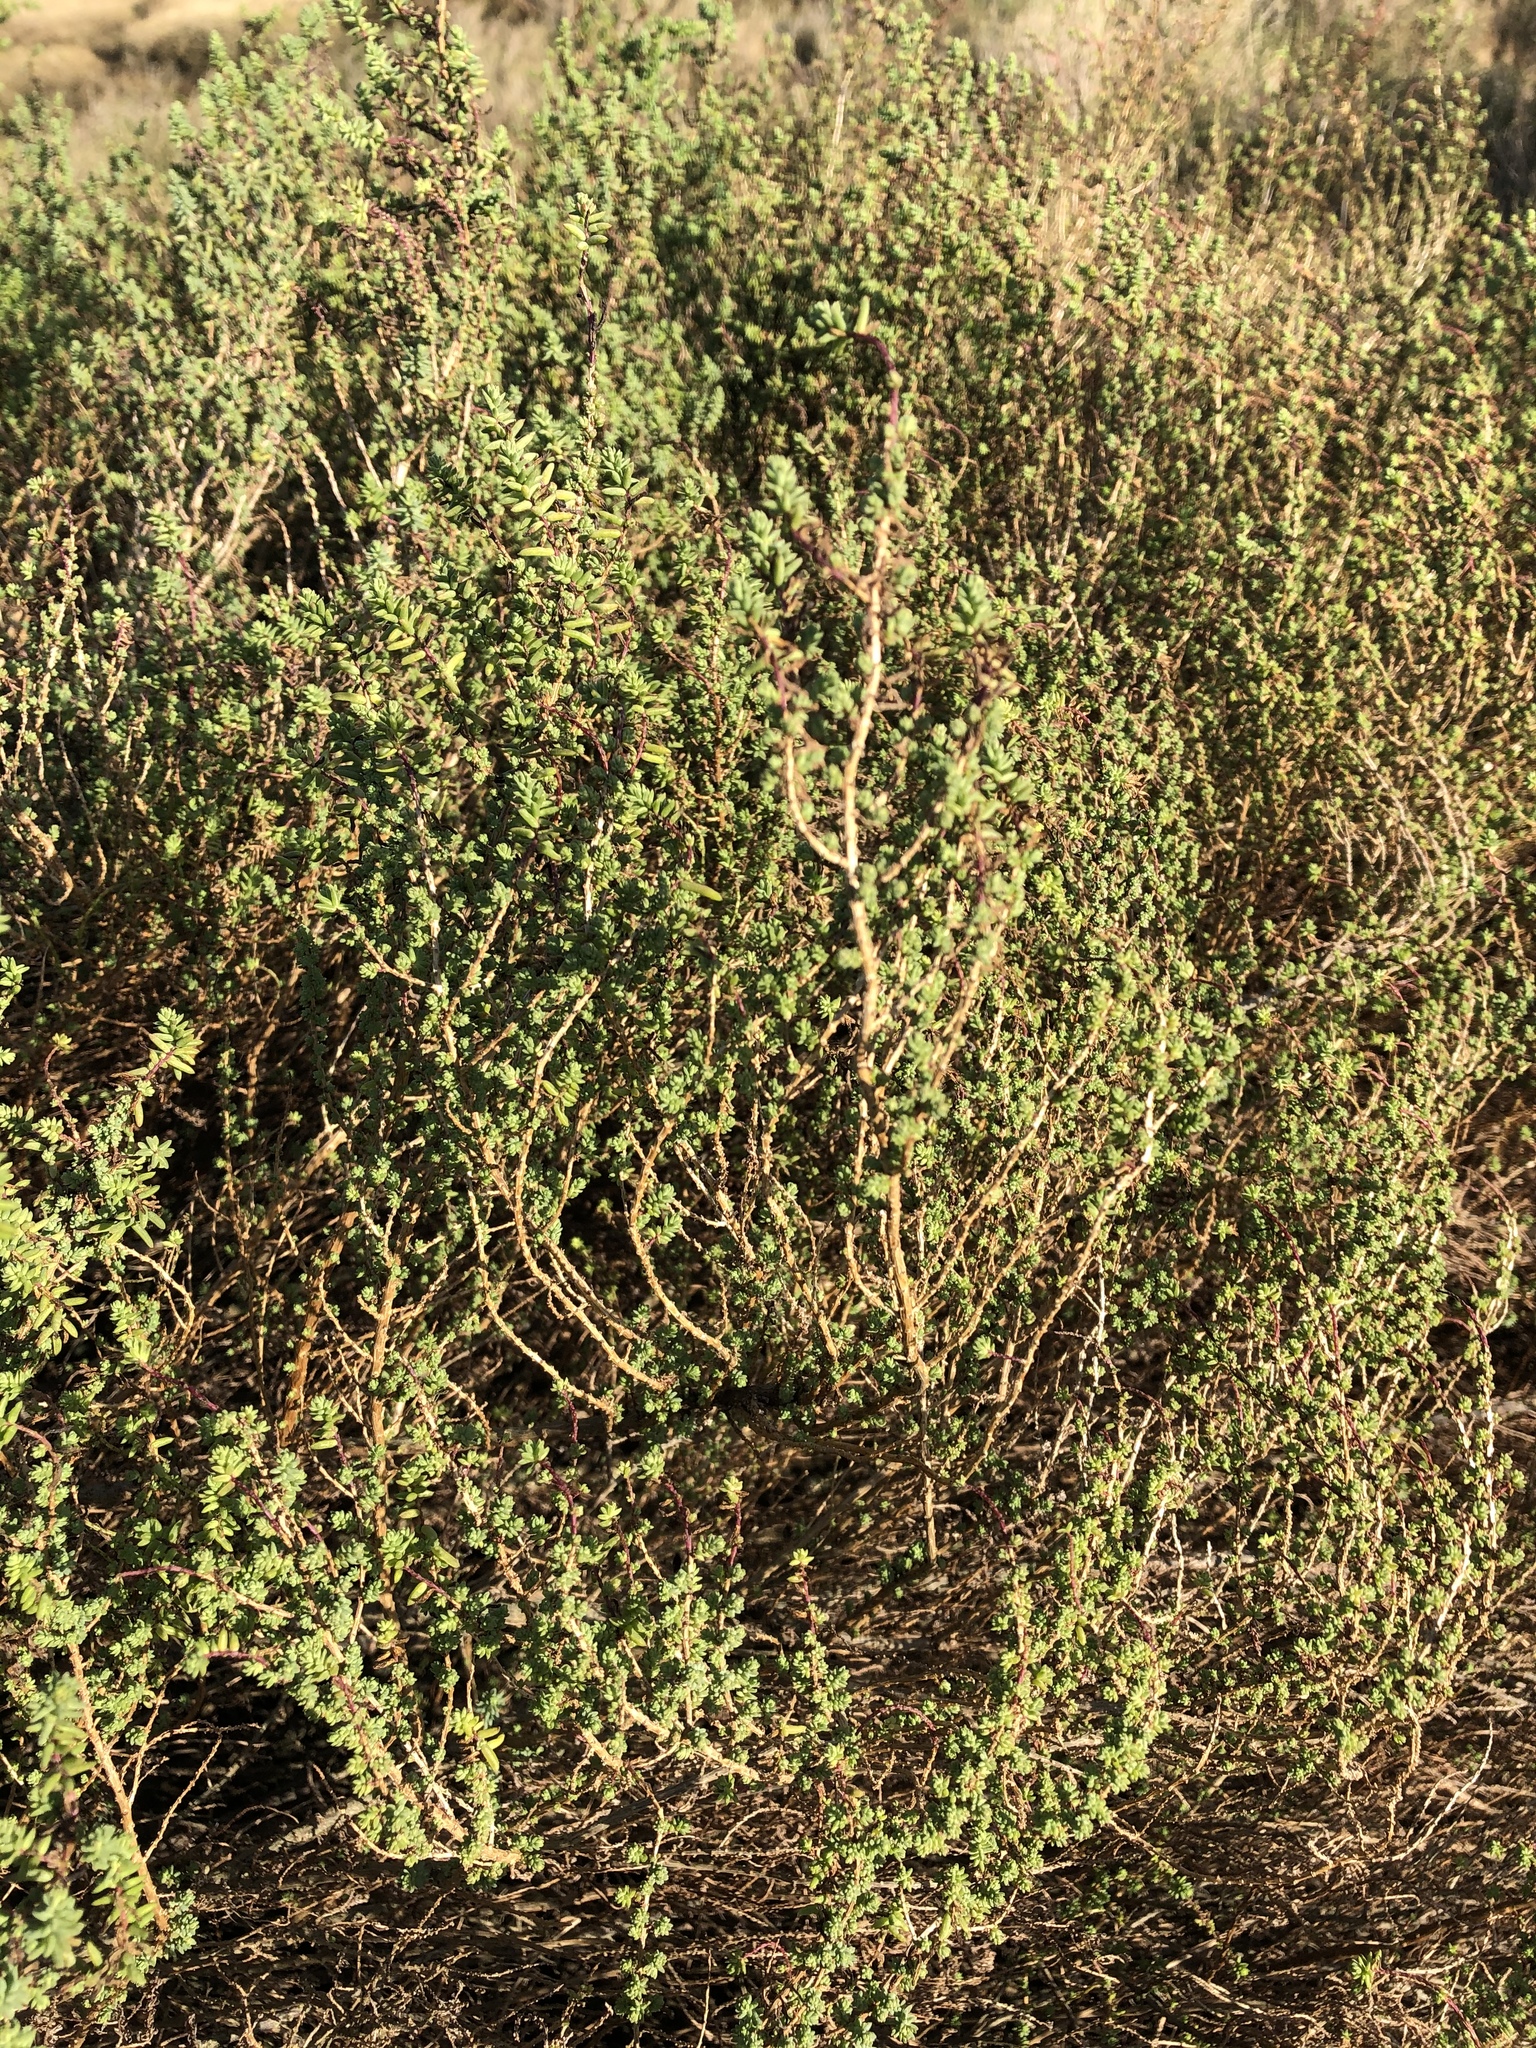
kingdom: Plantae
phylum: Tracheophyta
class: Magnoliopsida
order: Caryophyllales
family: Amaranthaceae
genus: Suaeda
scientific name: Suaeda vera
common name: Shrubby sea-blite
